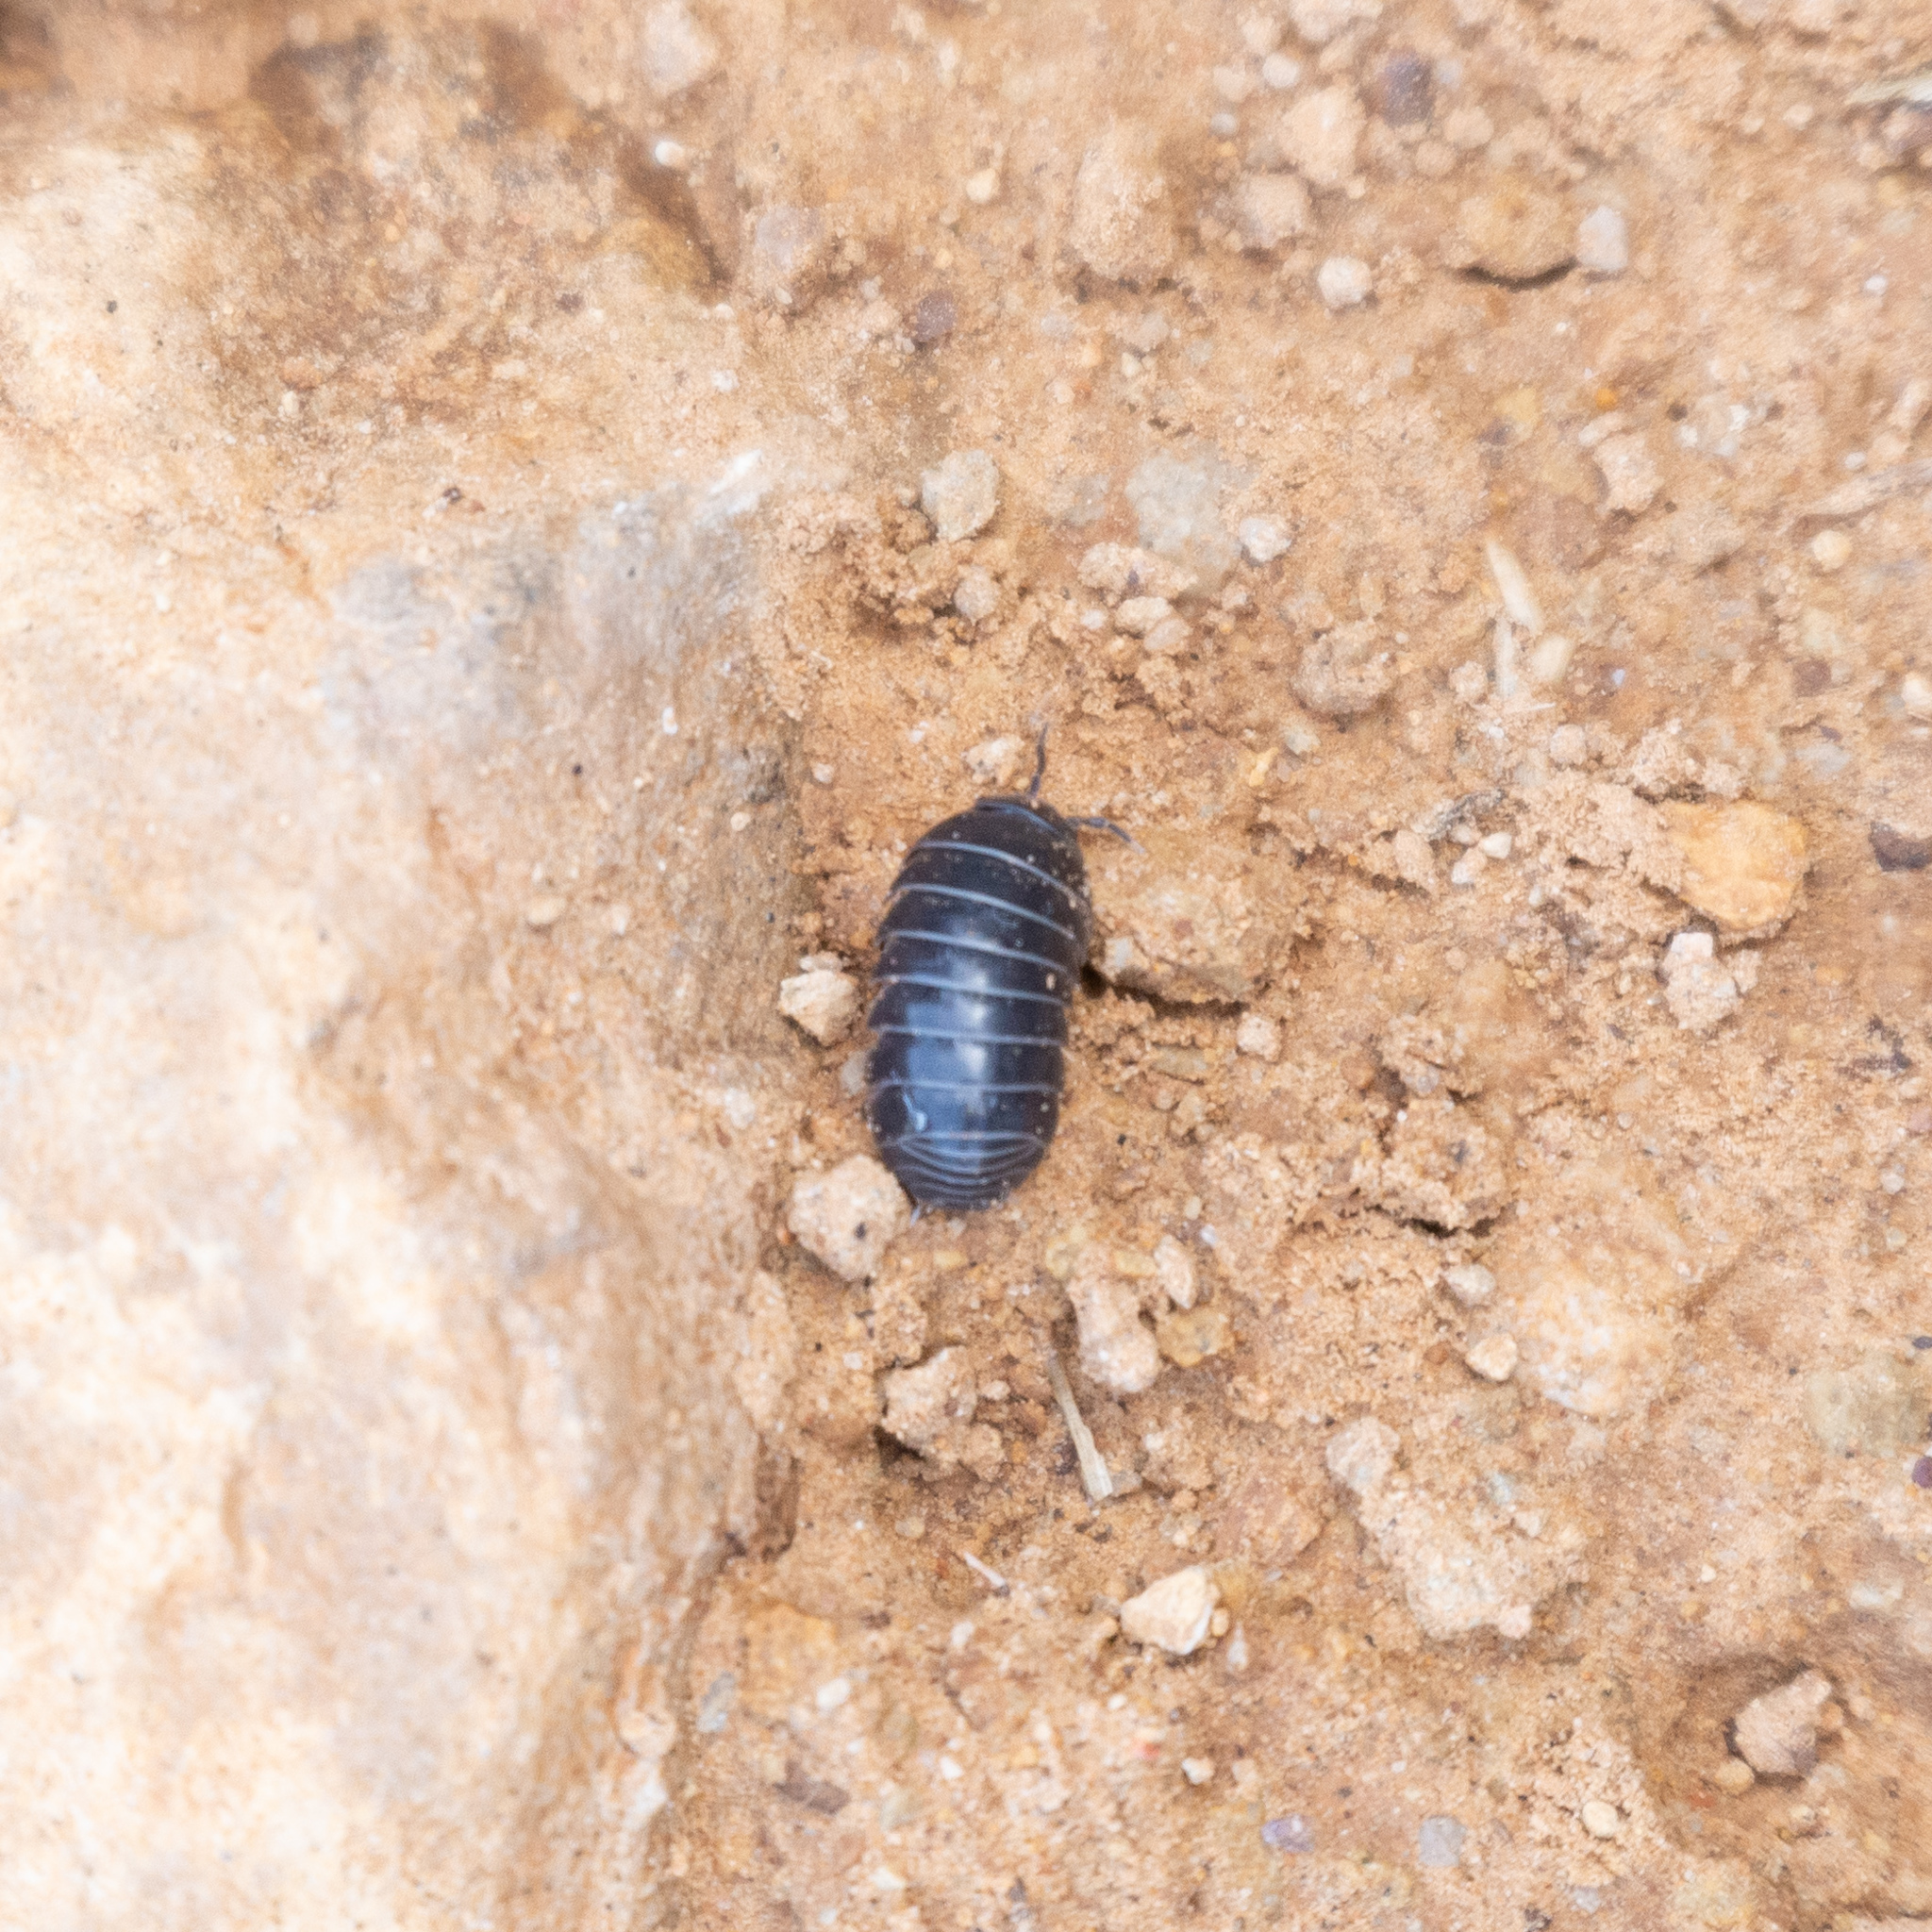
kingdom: Animalia
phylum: Arthropoda
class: Malacostraca
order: Isopoda
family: Armadillidiidae
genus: Armadillidium
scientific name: Armadillidium vulgare
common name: Common pill woodlouse
